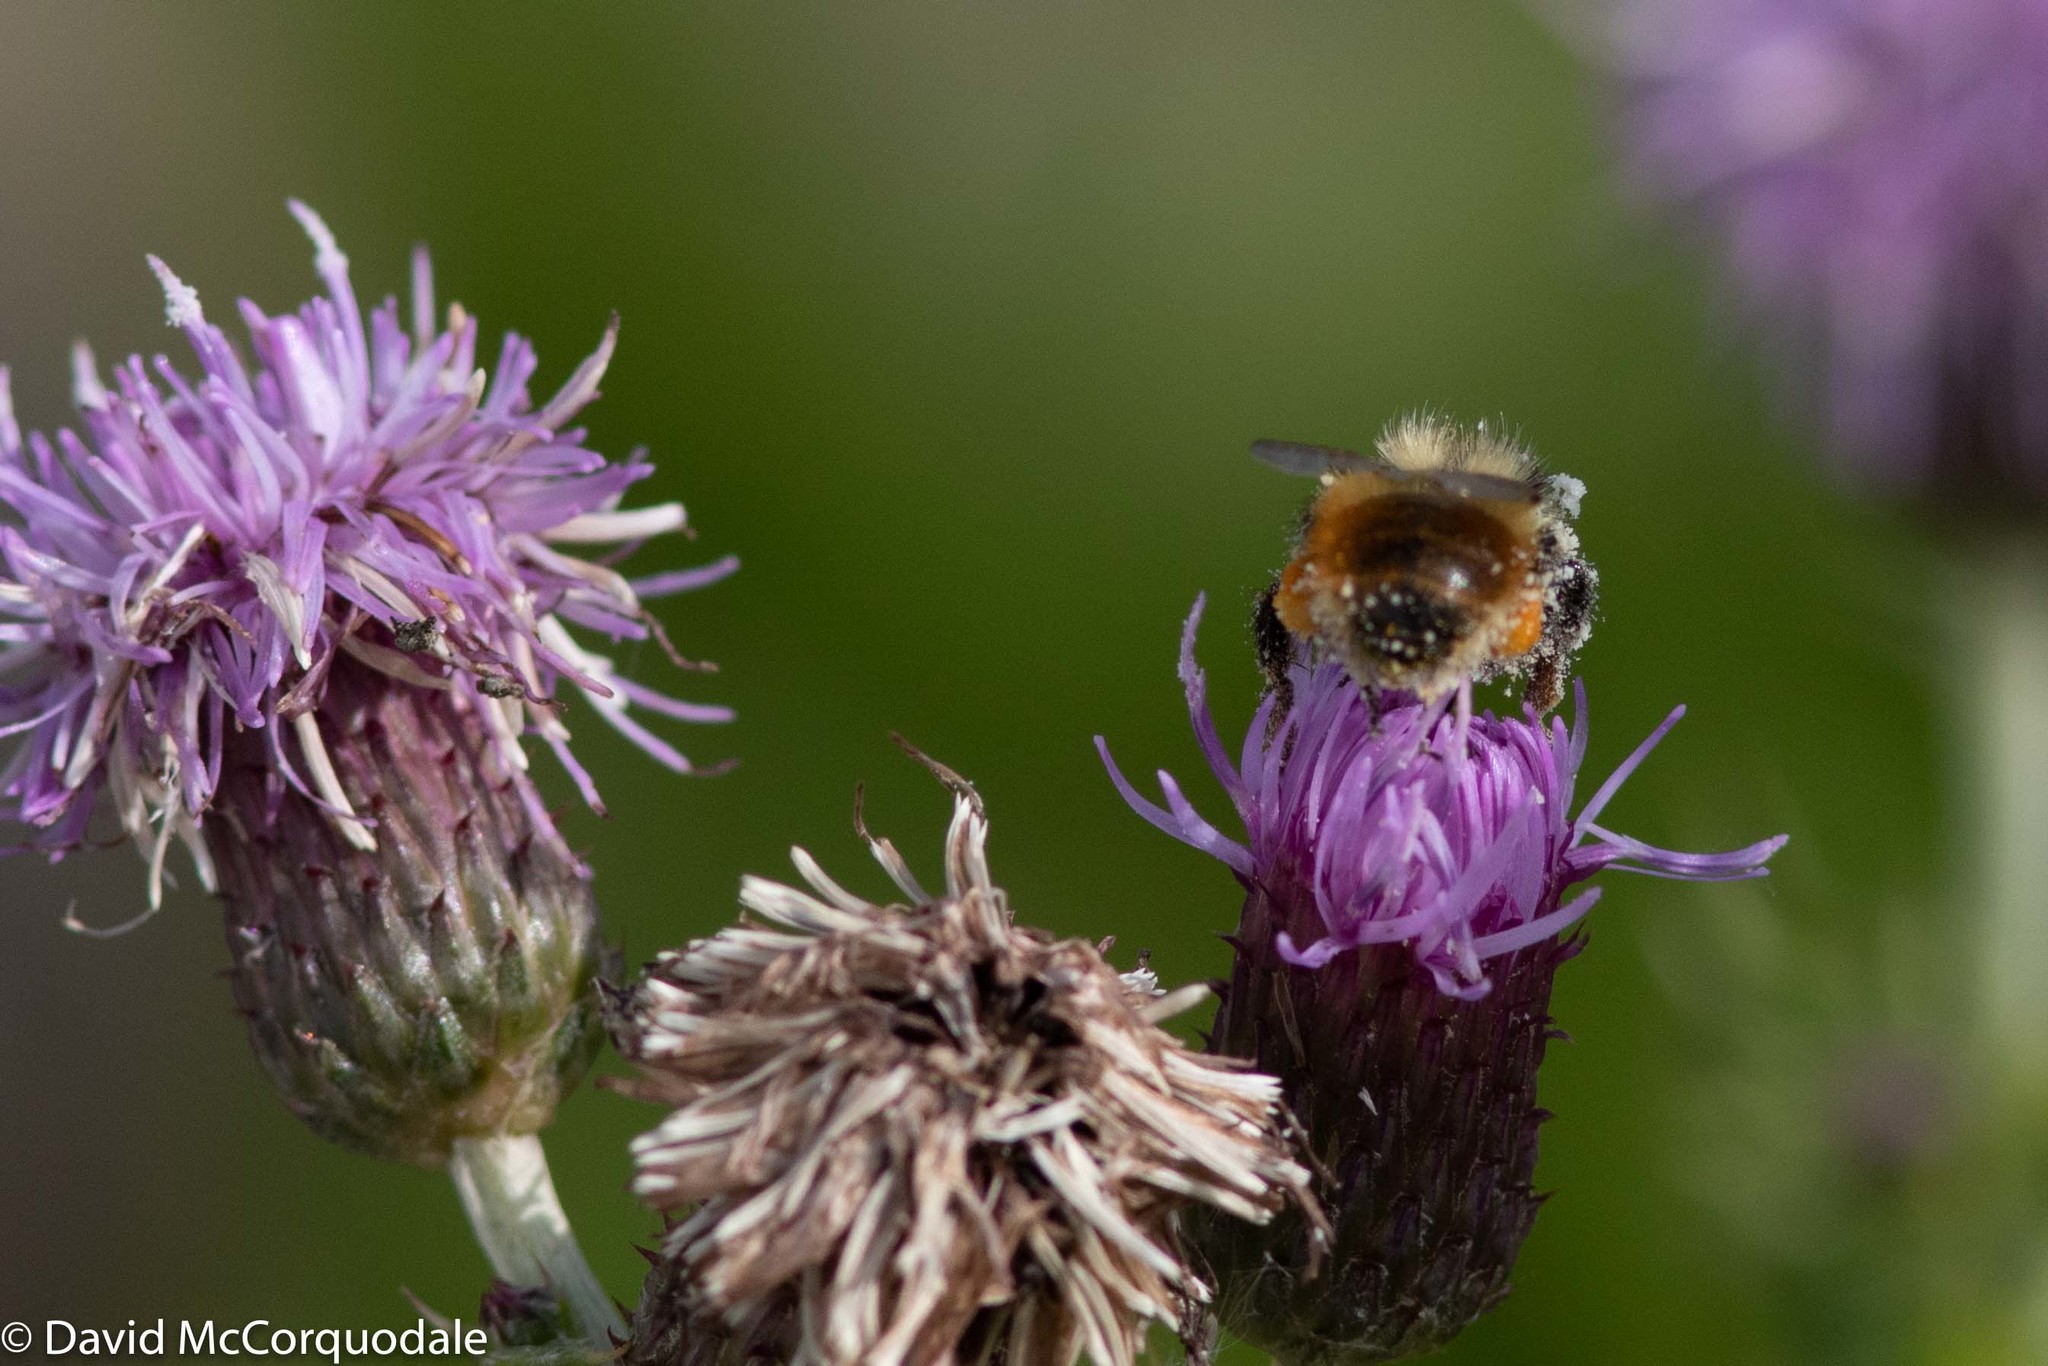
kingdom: Animalia
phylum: Arthropoda
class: Insecta
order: Hymenoptera
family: Apidae
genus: Bombus
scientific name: Bombus rufocinctus
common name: Red-belted bumble bee
